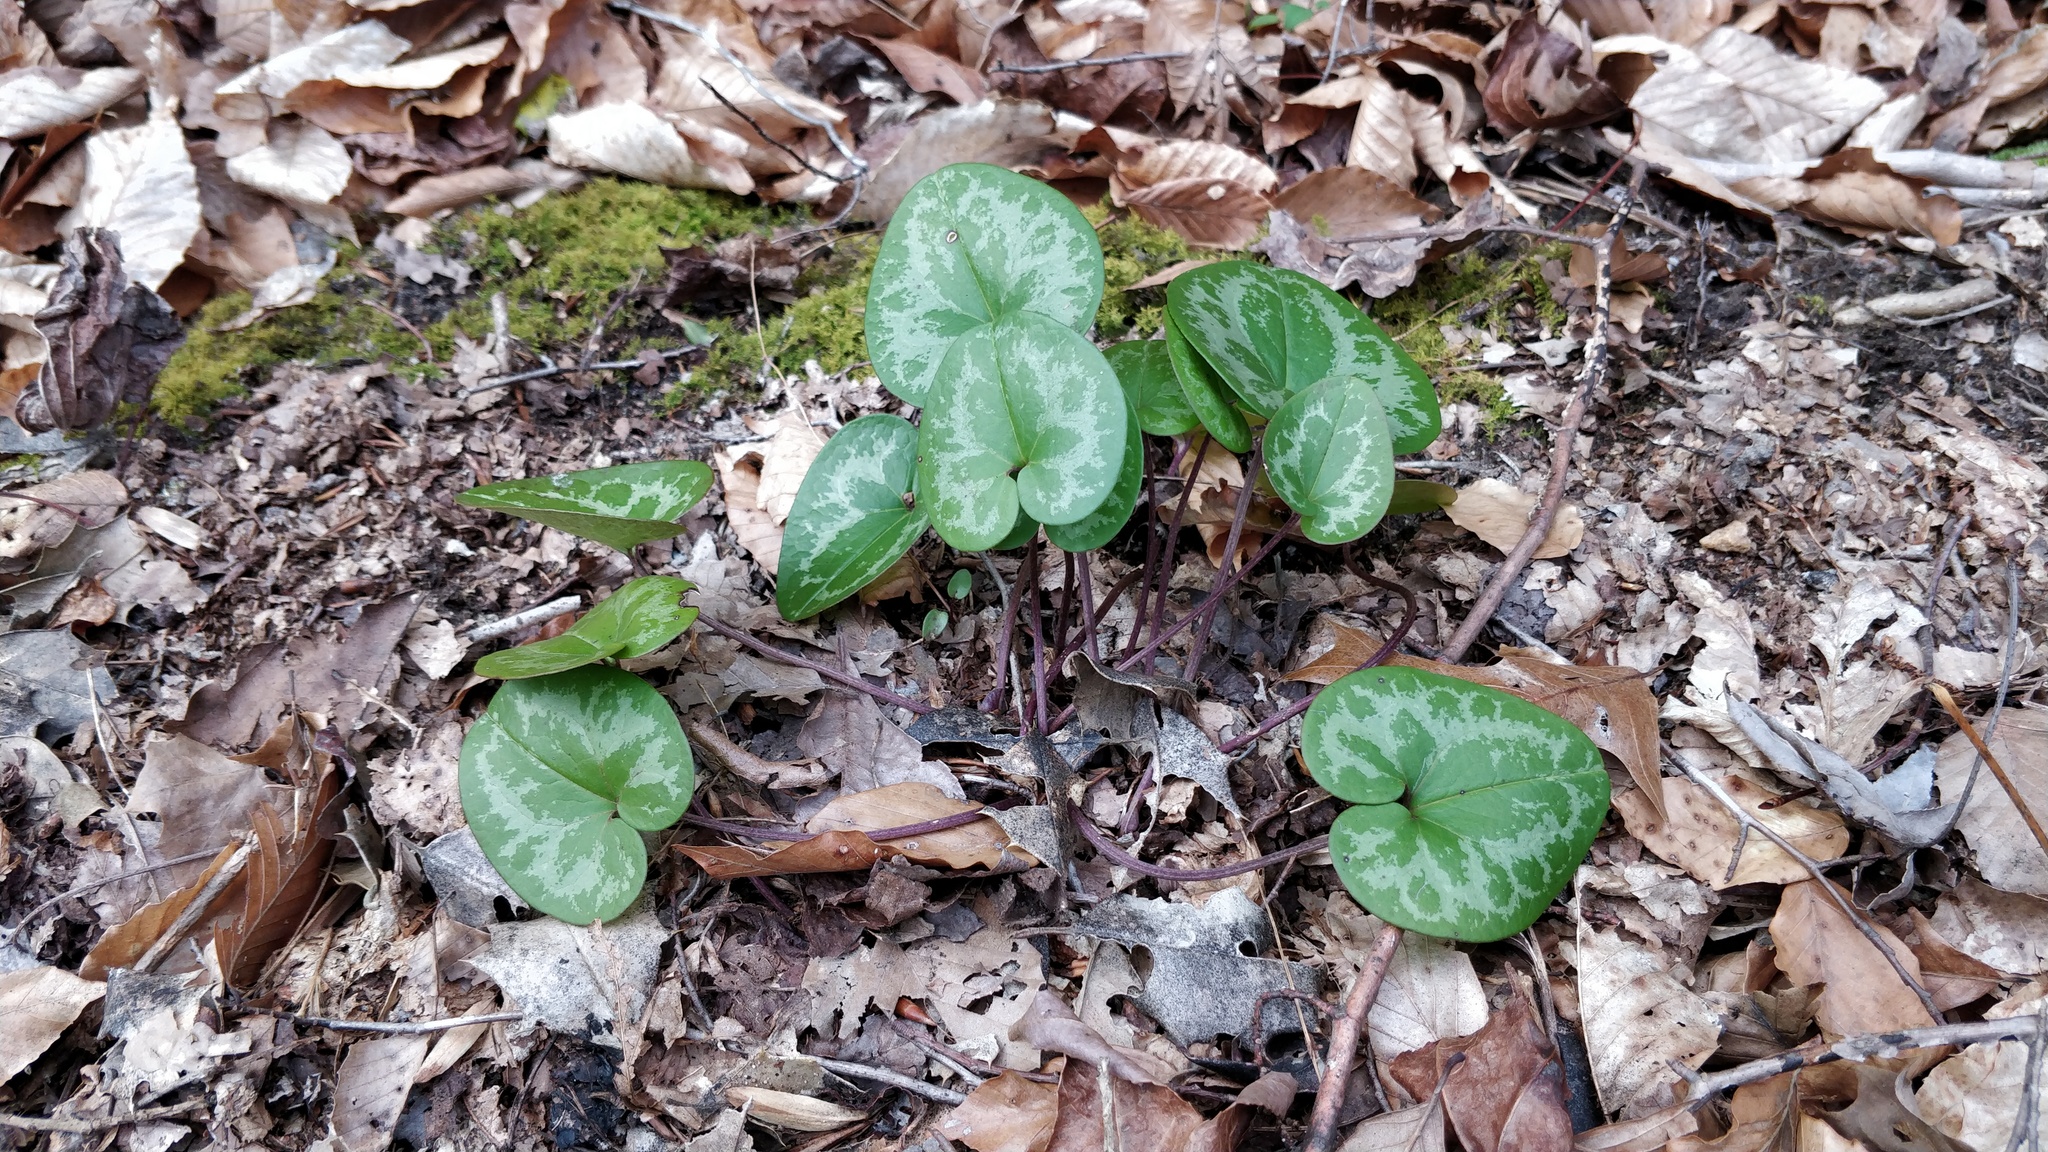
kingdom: Plantae
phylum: Tracheophyta
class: Magnoliopsida
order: Piperales
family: Aristolochiaceae
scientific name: Aristolochiaceae
